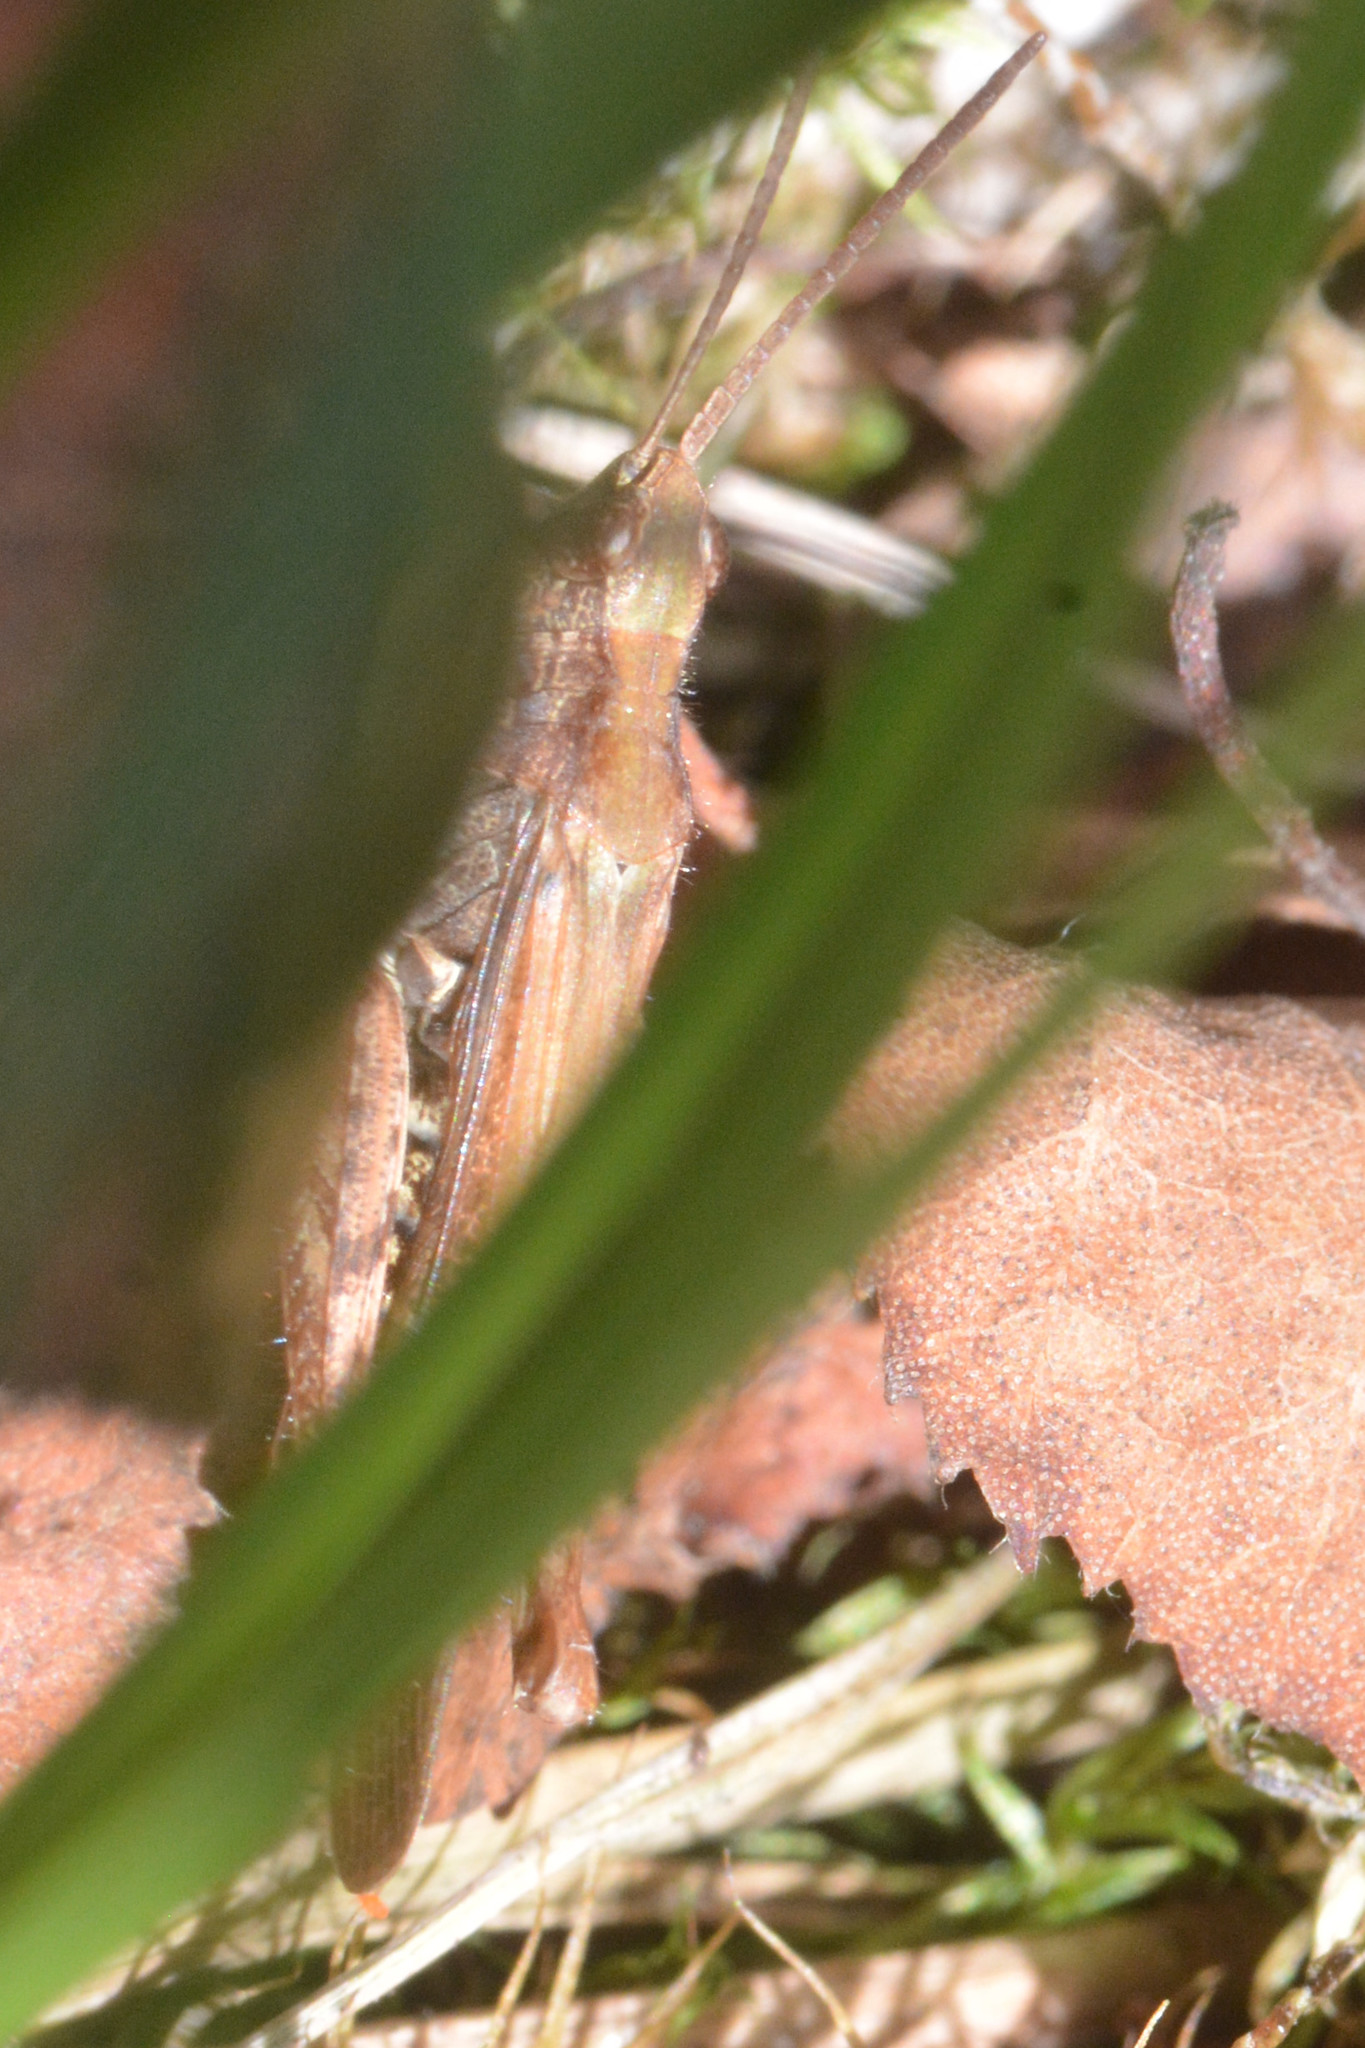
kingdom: Animalia
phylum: Arthropoda
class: Insecta
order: Orthoptera
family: Acrididae
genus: Chorthippus
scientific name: Chorthippus brunneus
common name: Field grasshopper
